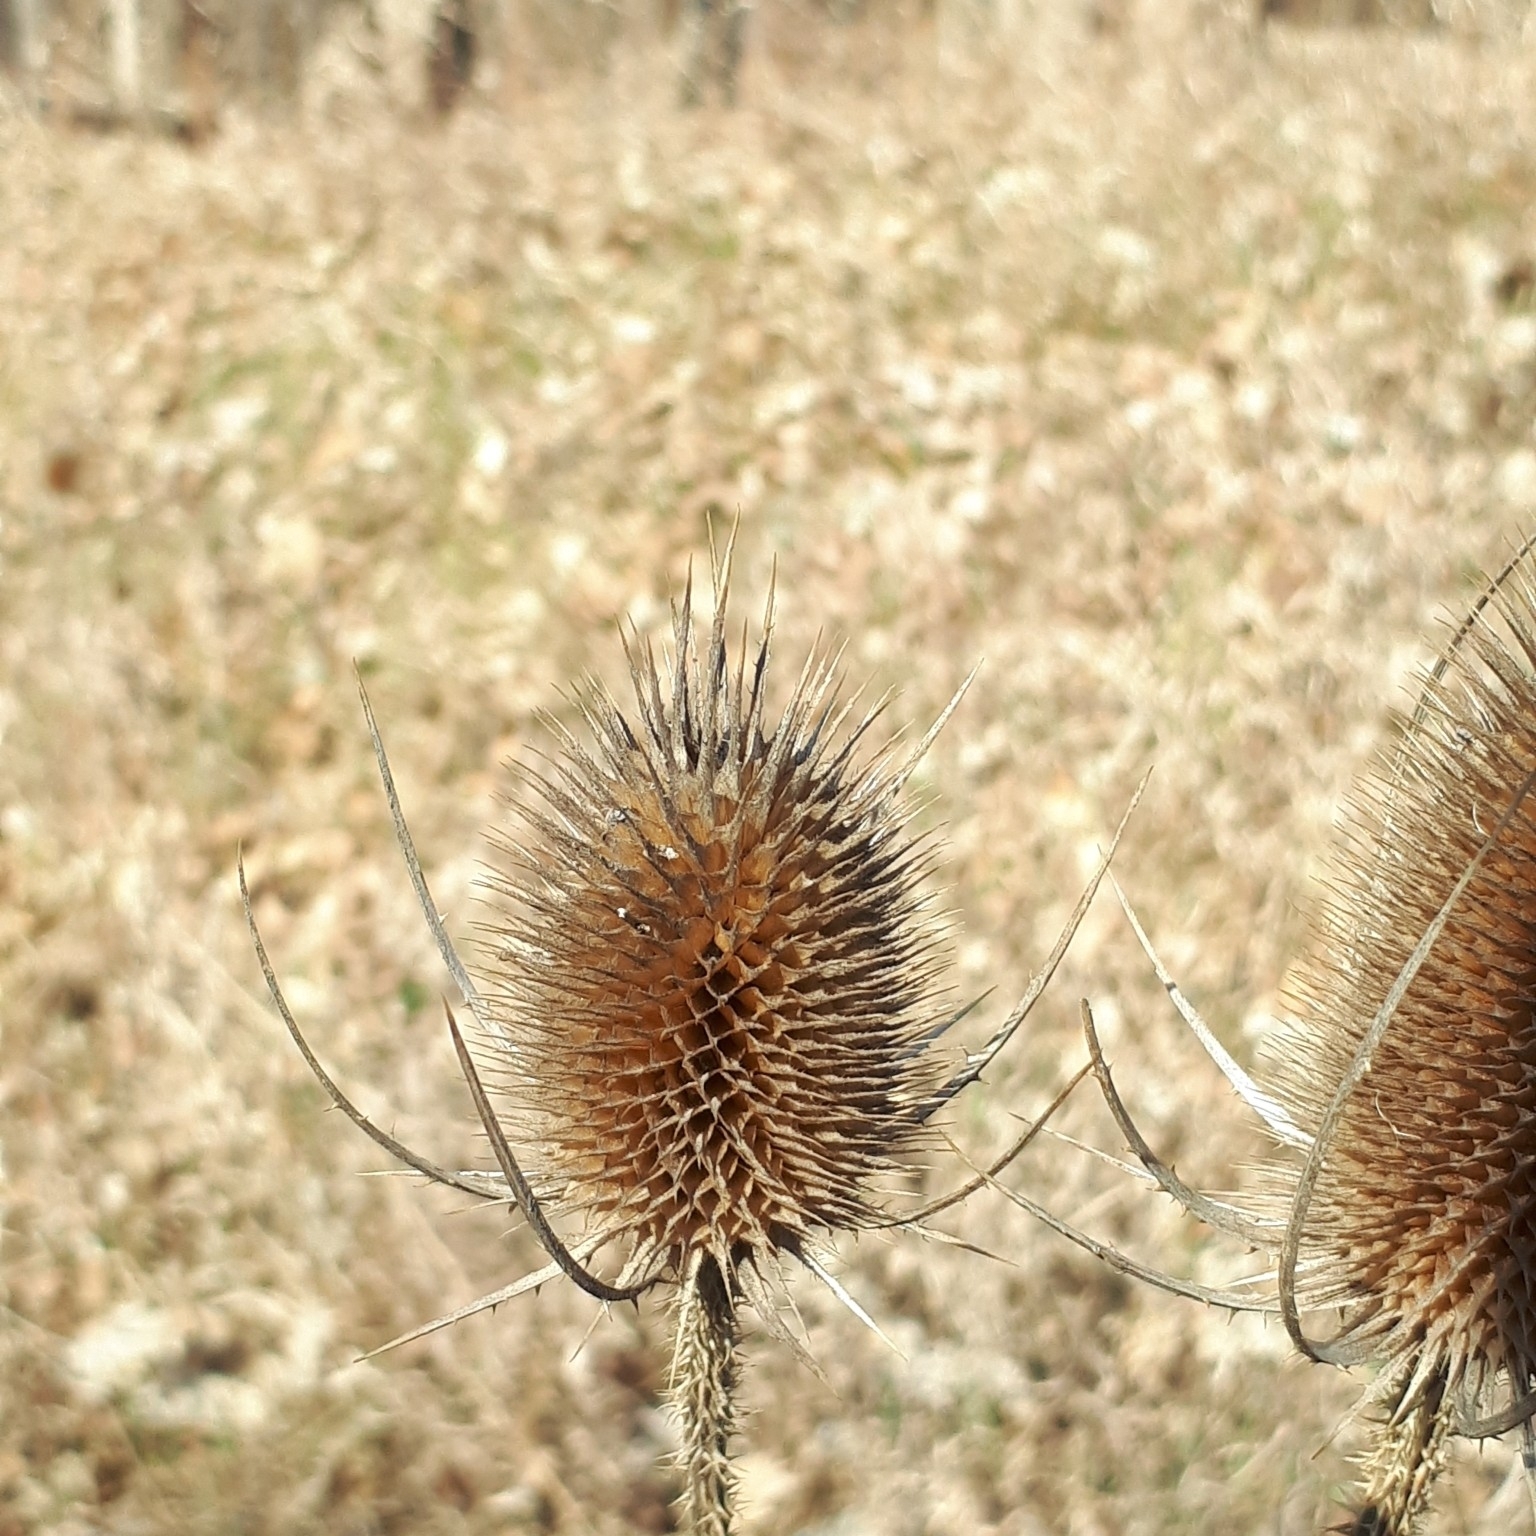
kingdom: Plantae
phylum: Tracheophyta
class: Magnoliopsida
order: Dipsacales
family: Caprifoliaceae
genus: Dipsacus
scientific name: Dipsacus fullonum
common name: Teasel
